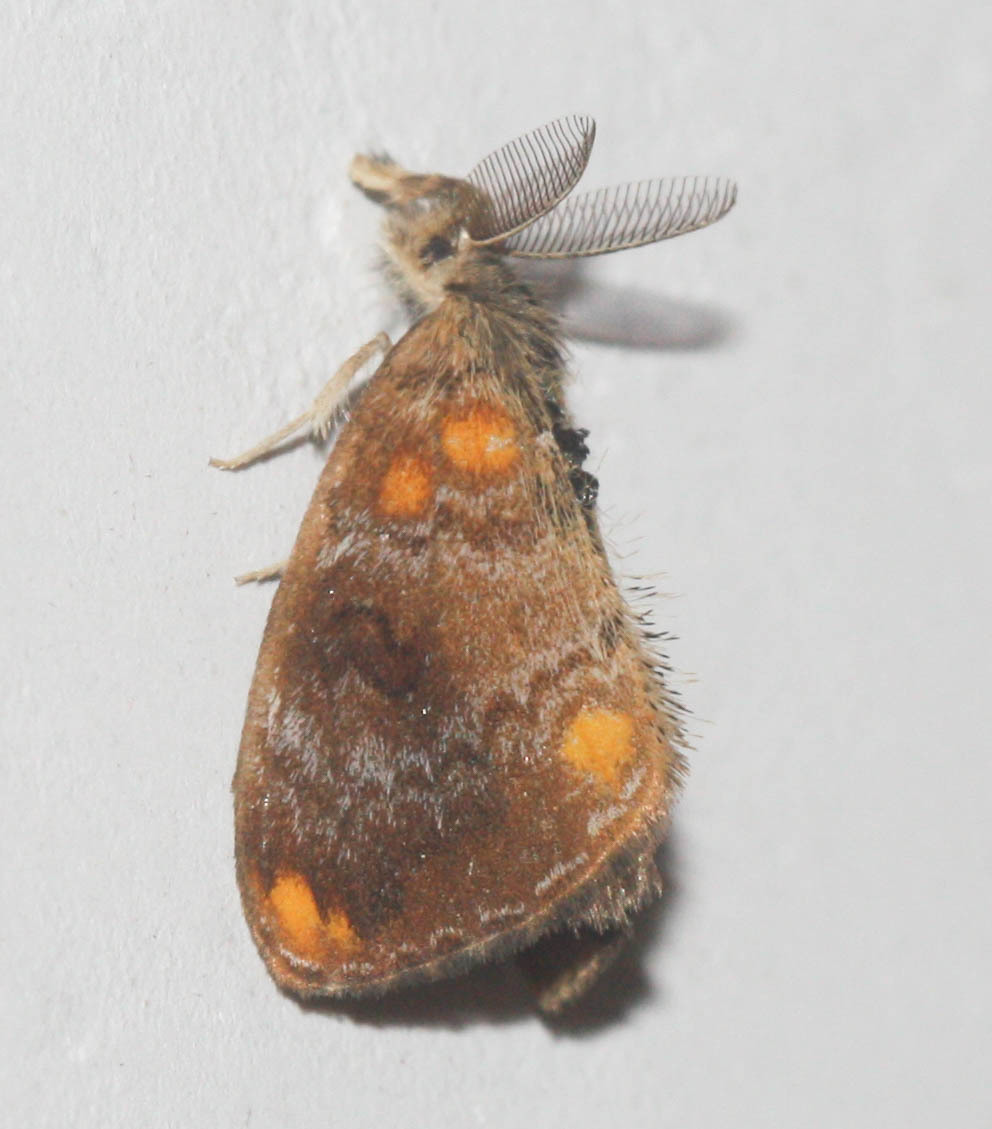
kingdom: Animalia
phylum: Arthropoda
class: Insecta
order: Lepidoptera
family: Erebidae
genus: Clethrogyna
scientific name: Clethrogyna turbata
